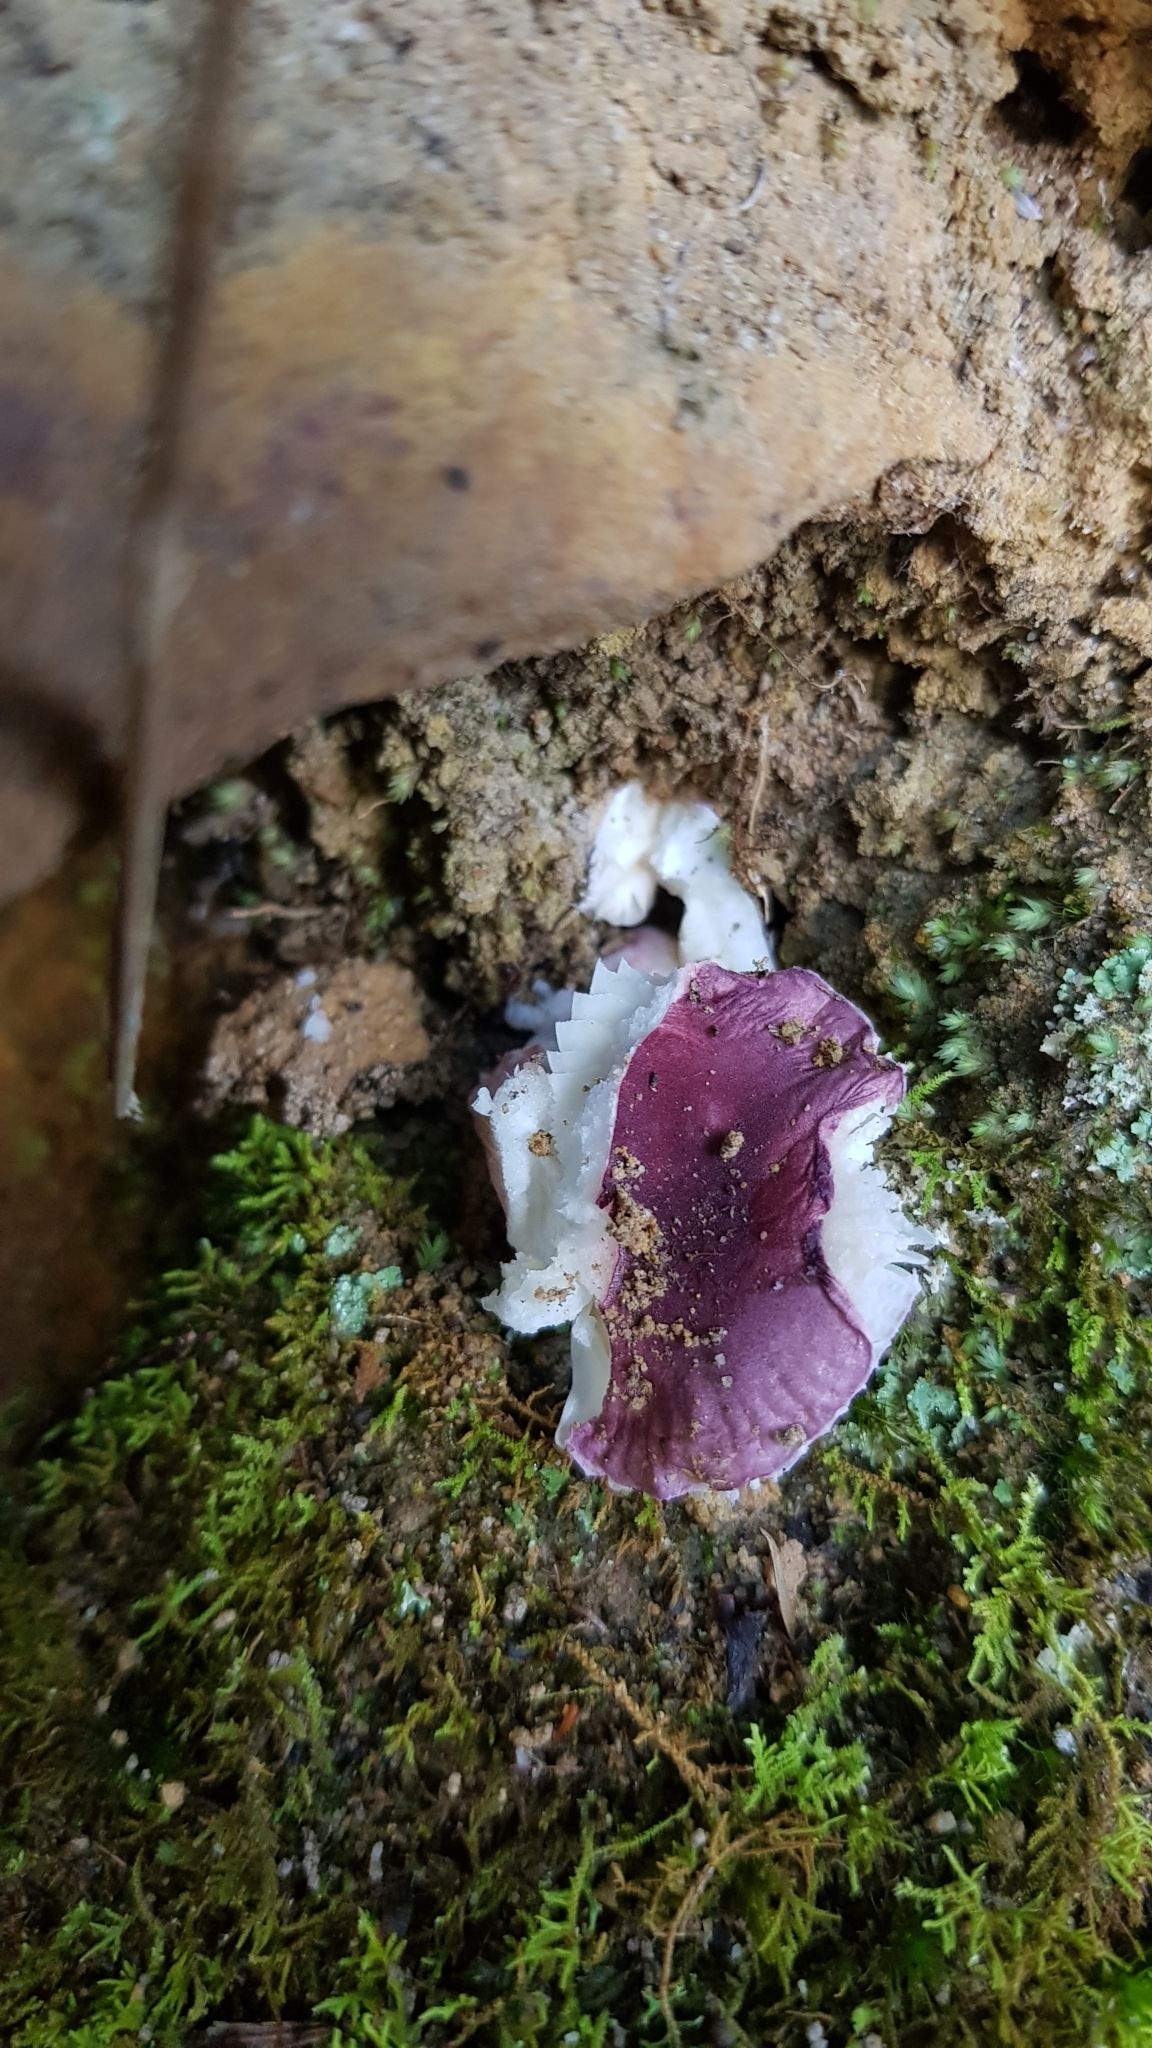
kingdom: Fungi
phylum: Basidiomycota
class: Agaricomycetes
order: Russulales
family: Russulaceae
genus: Russula
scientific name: Russula lenkunya
